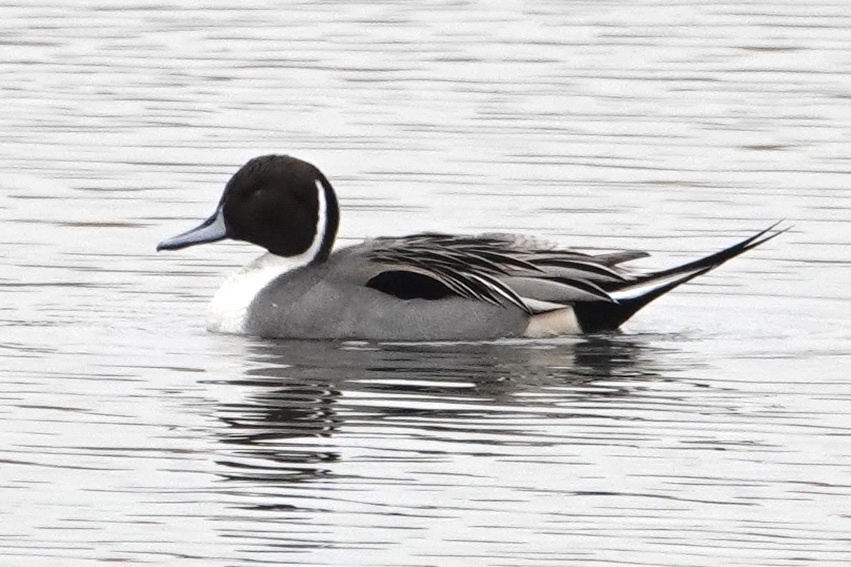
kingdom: Animalia
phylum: Chordata
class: Aves
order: Anseriformes
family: Anatidae
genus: Anas
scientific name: Anas acuta
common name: Northern pintail
